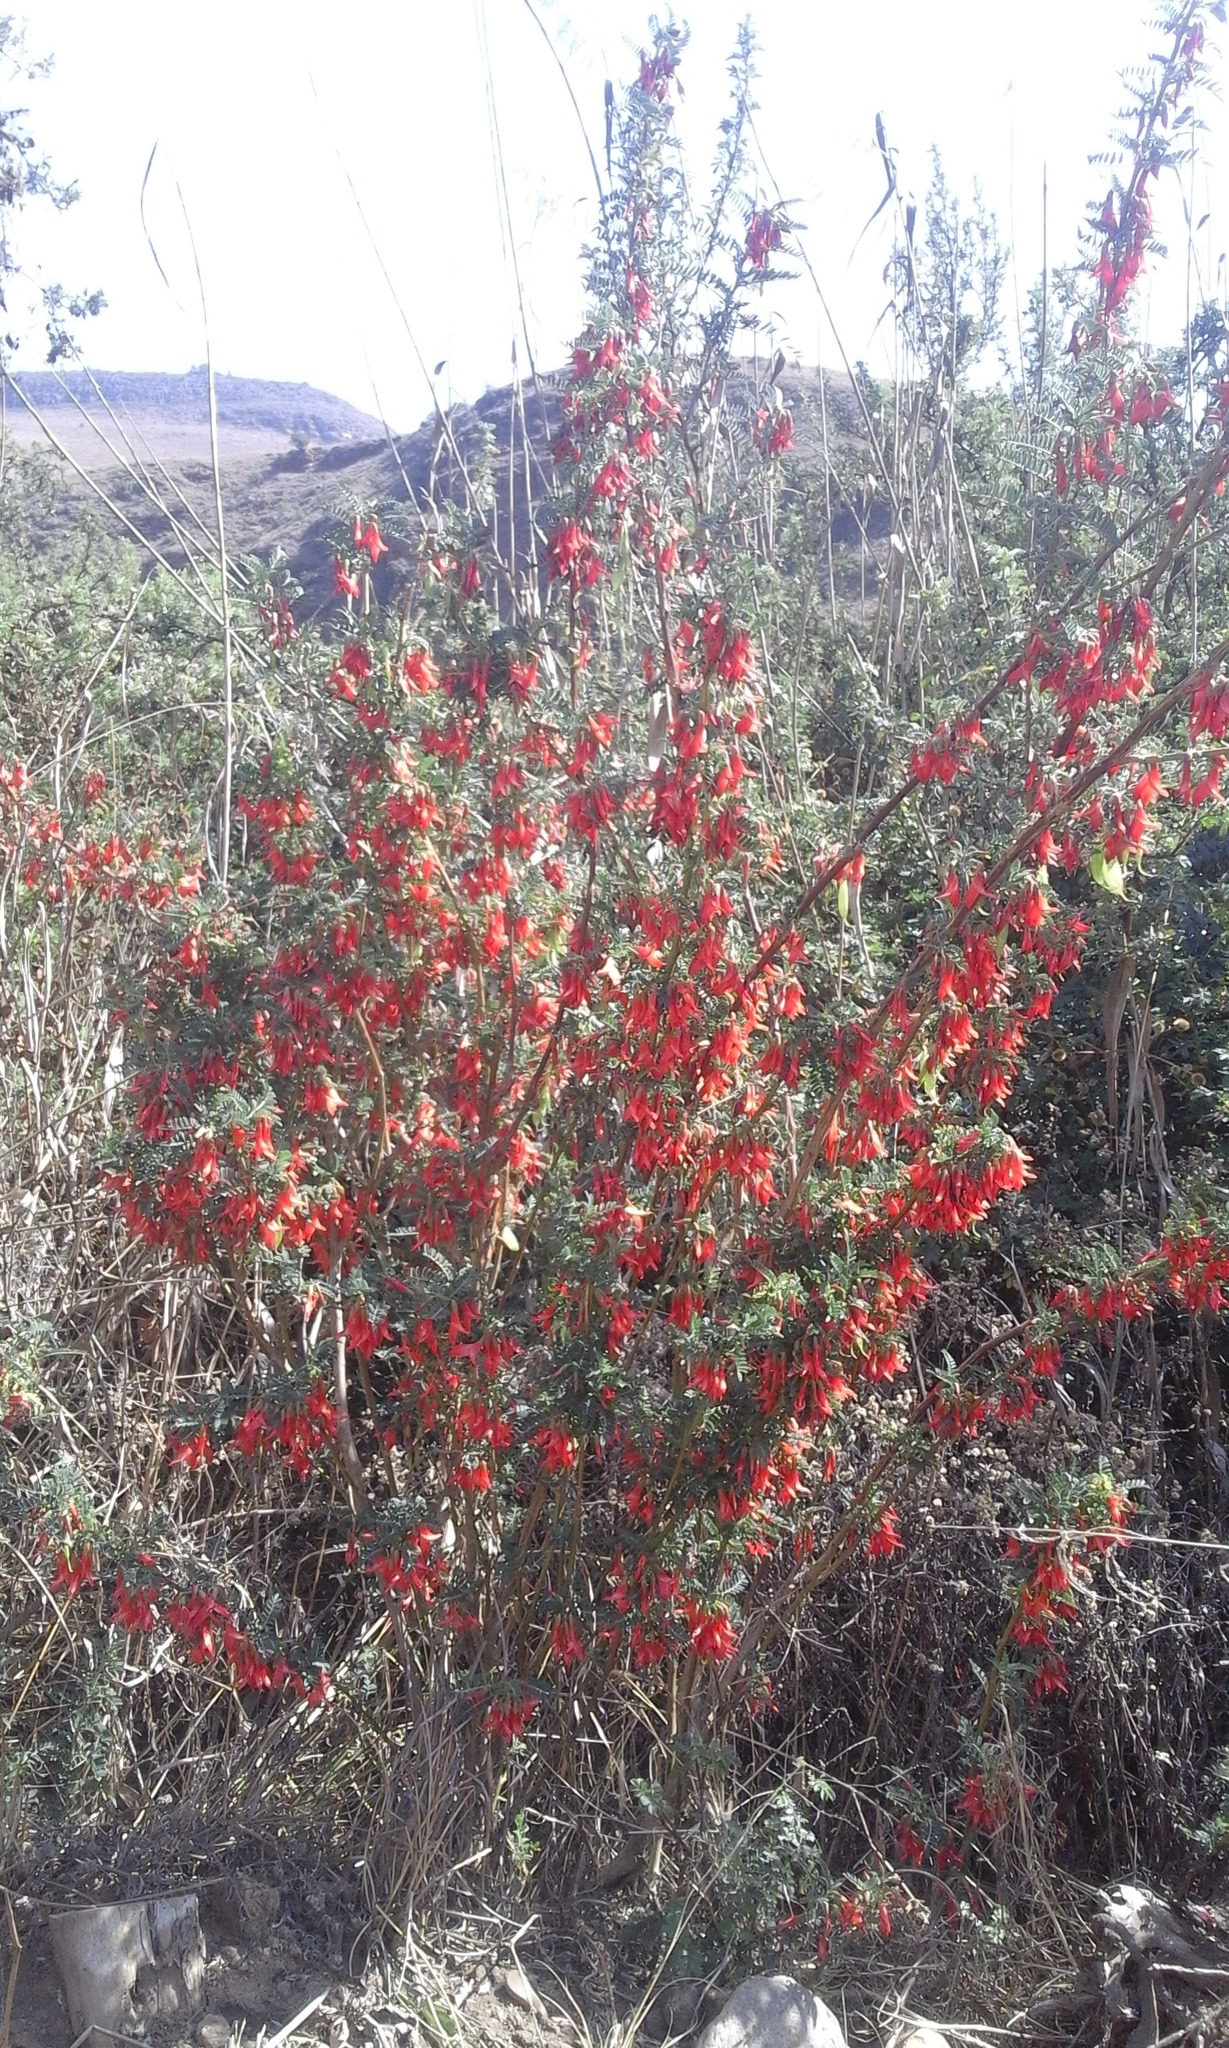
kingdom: Plantae
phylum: Tracheophyta
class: Magnoliopsida
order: Fabales
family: Fabaceae
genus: Lessertia
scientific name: Lessertia frutescens
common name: Balloon-pea
